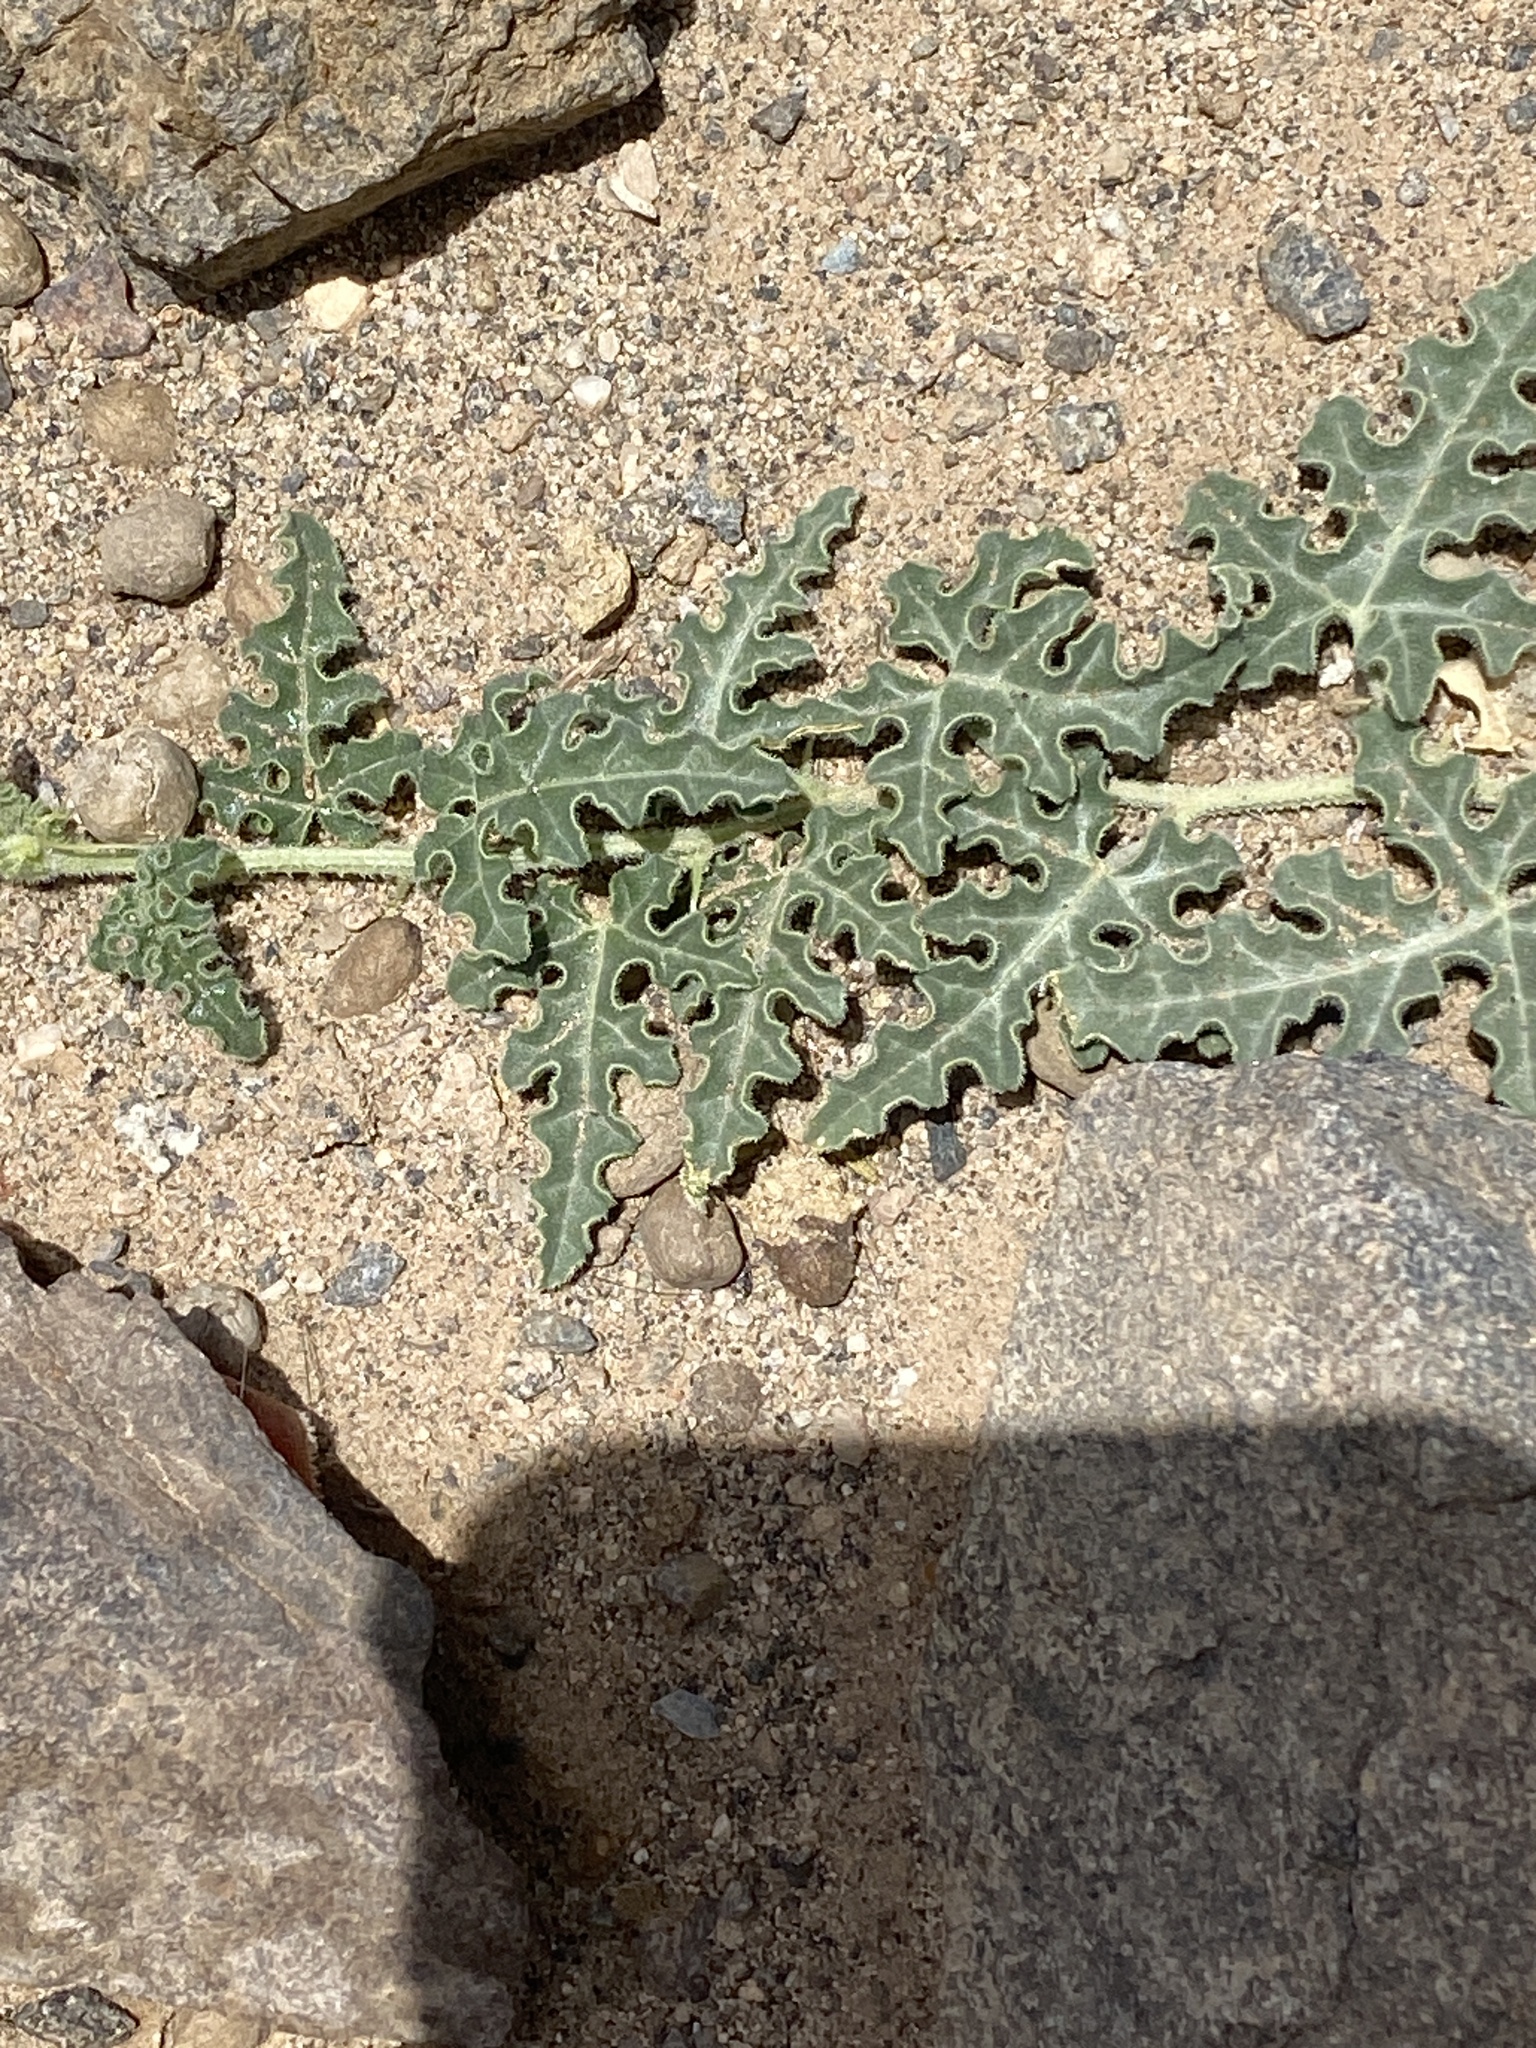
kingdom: Plantae
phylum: Tracheophyta
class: Magnoliopsida
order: Cucurbitales
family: Cucurbitaceae
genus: Citrullus
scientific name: Citrullus colocynthis
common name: Colocynth
